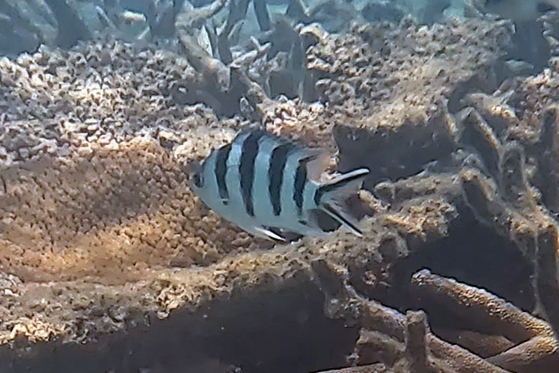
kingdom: Animalia
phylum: Chordata
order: Perciformes
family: Pomacentridae
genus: Abudefduf
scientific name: Abudefduf sexfasciatus
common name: Scissortail sergeant
